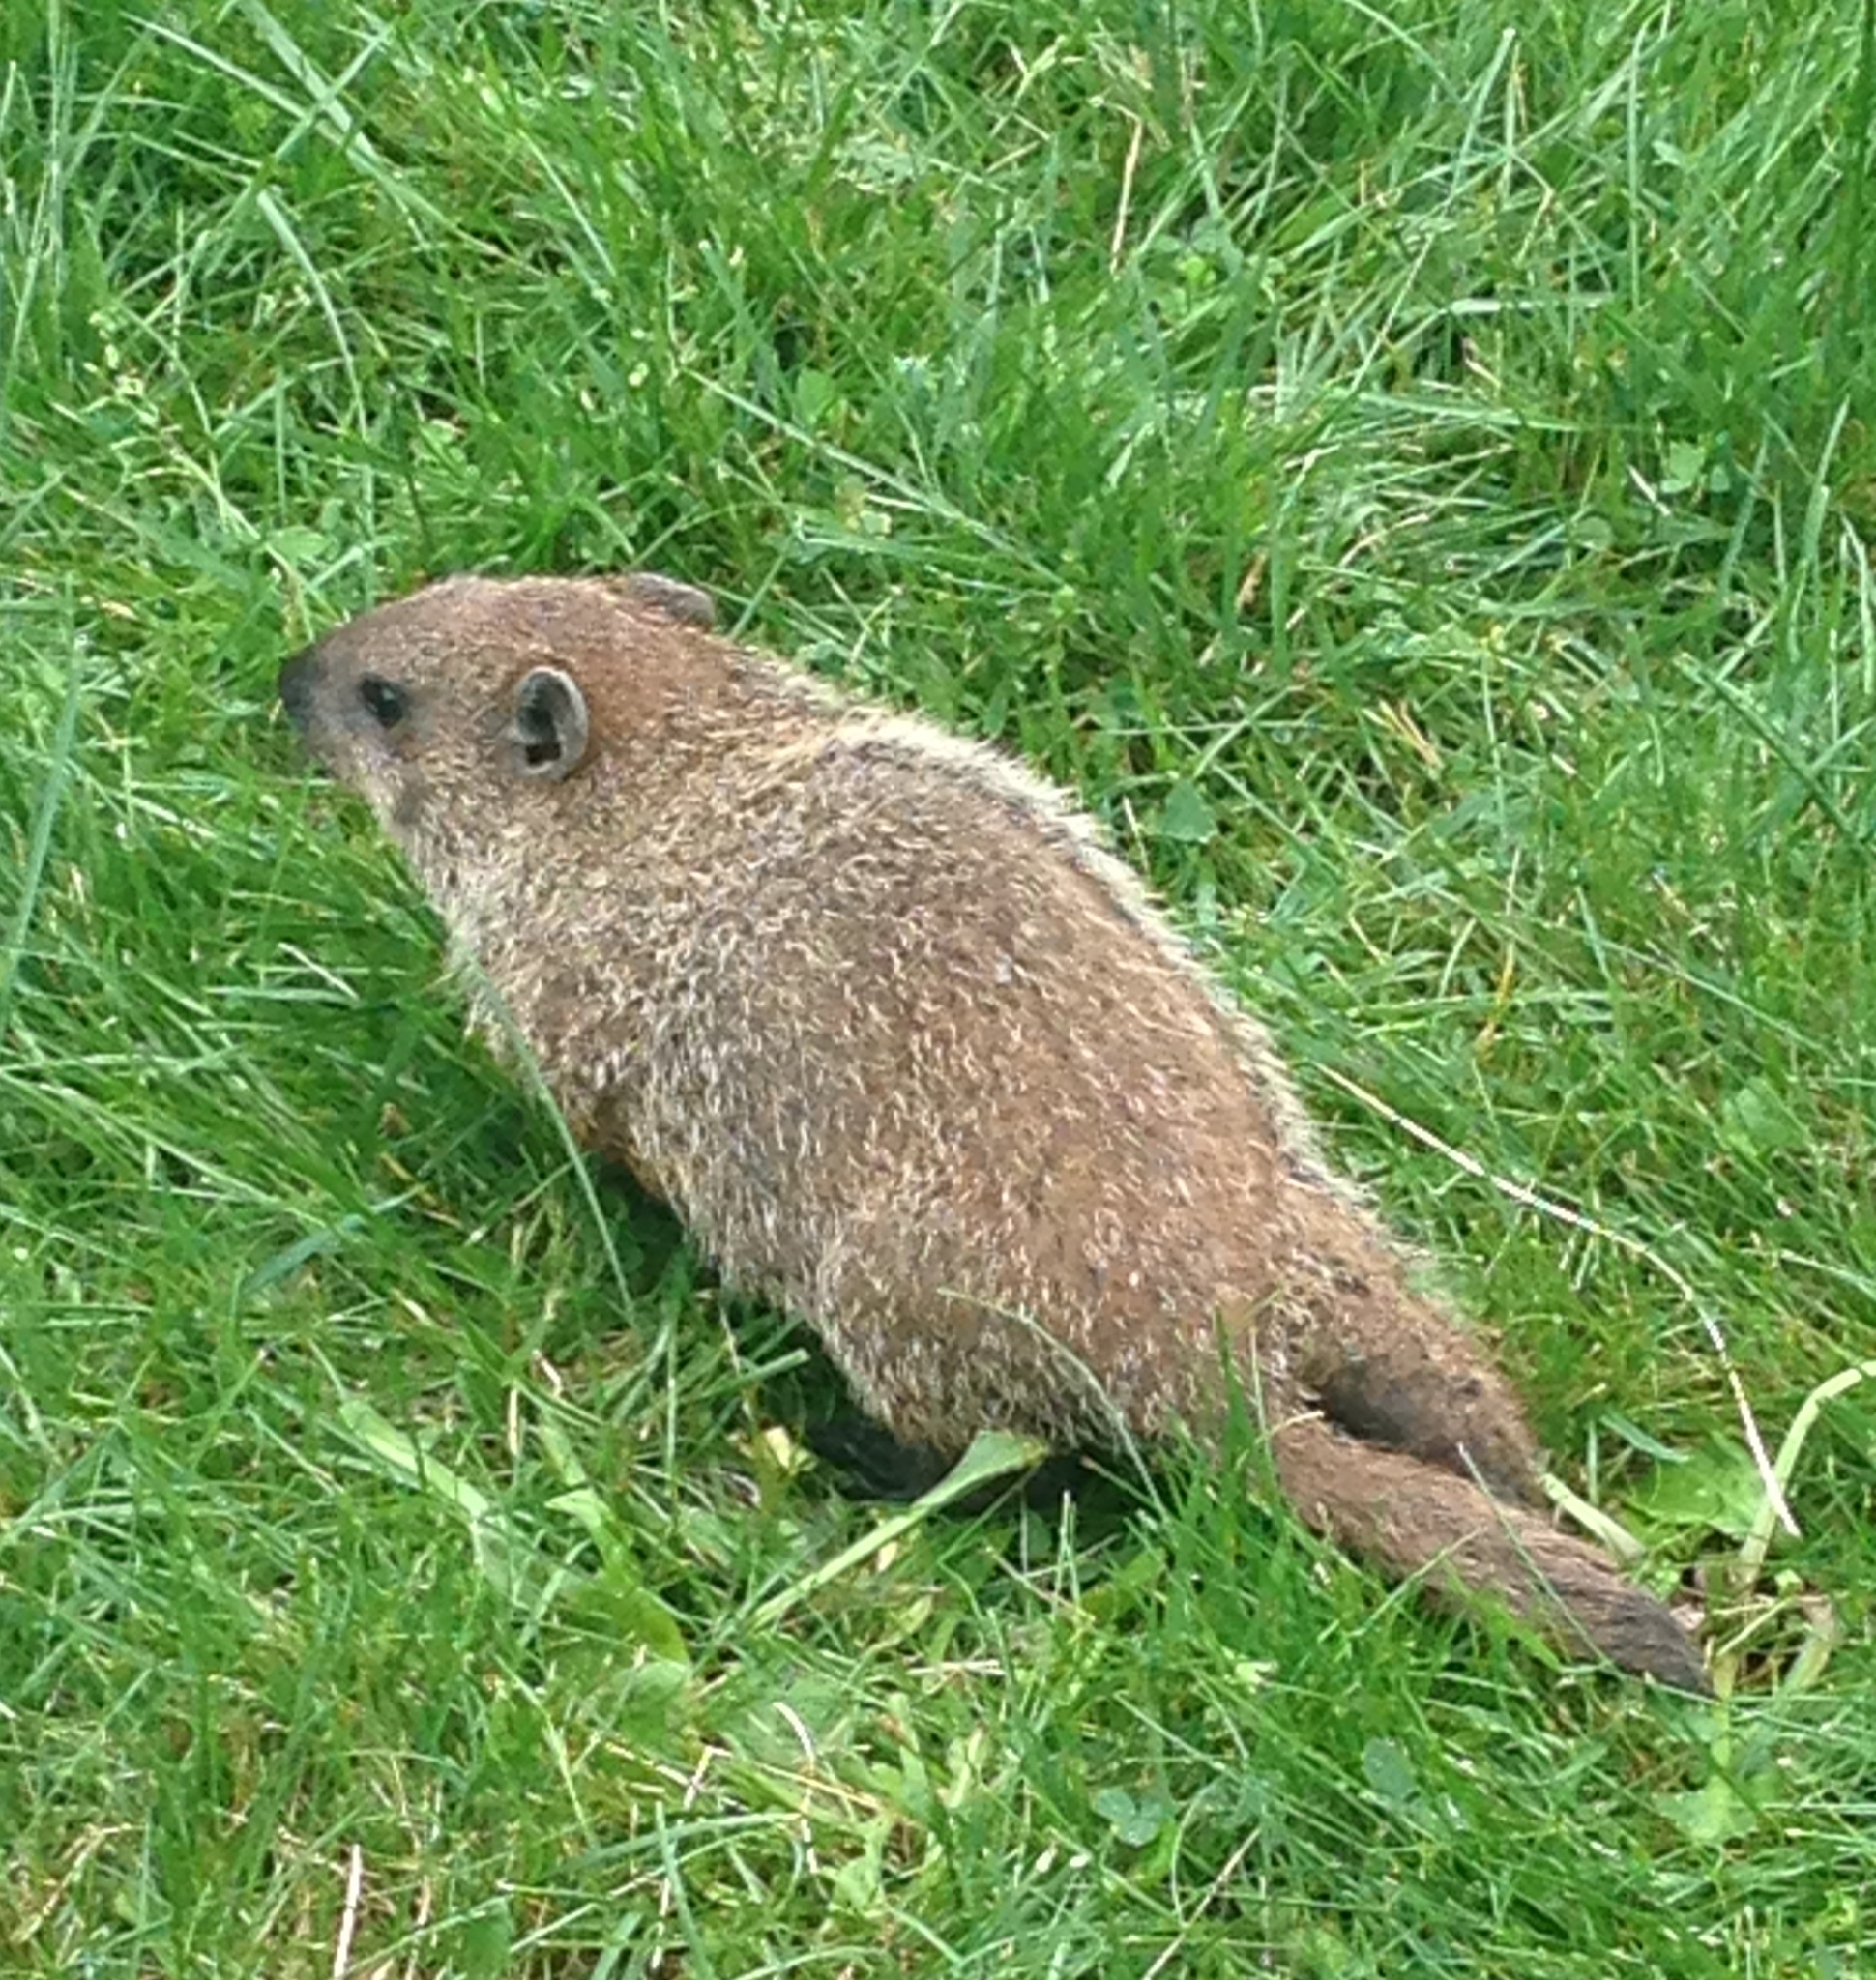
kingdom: Animalia
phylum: Chordata
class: Mammalia
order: Rodentia
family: Sciuridae
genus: Marmota
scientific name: Marmota monax
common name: Groundhog
